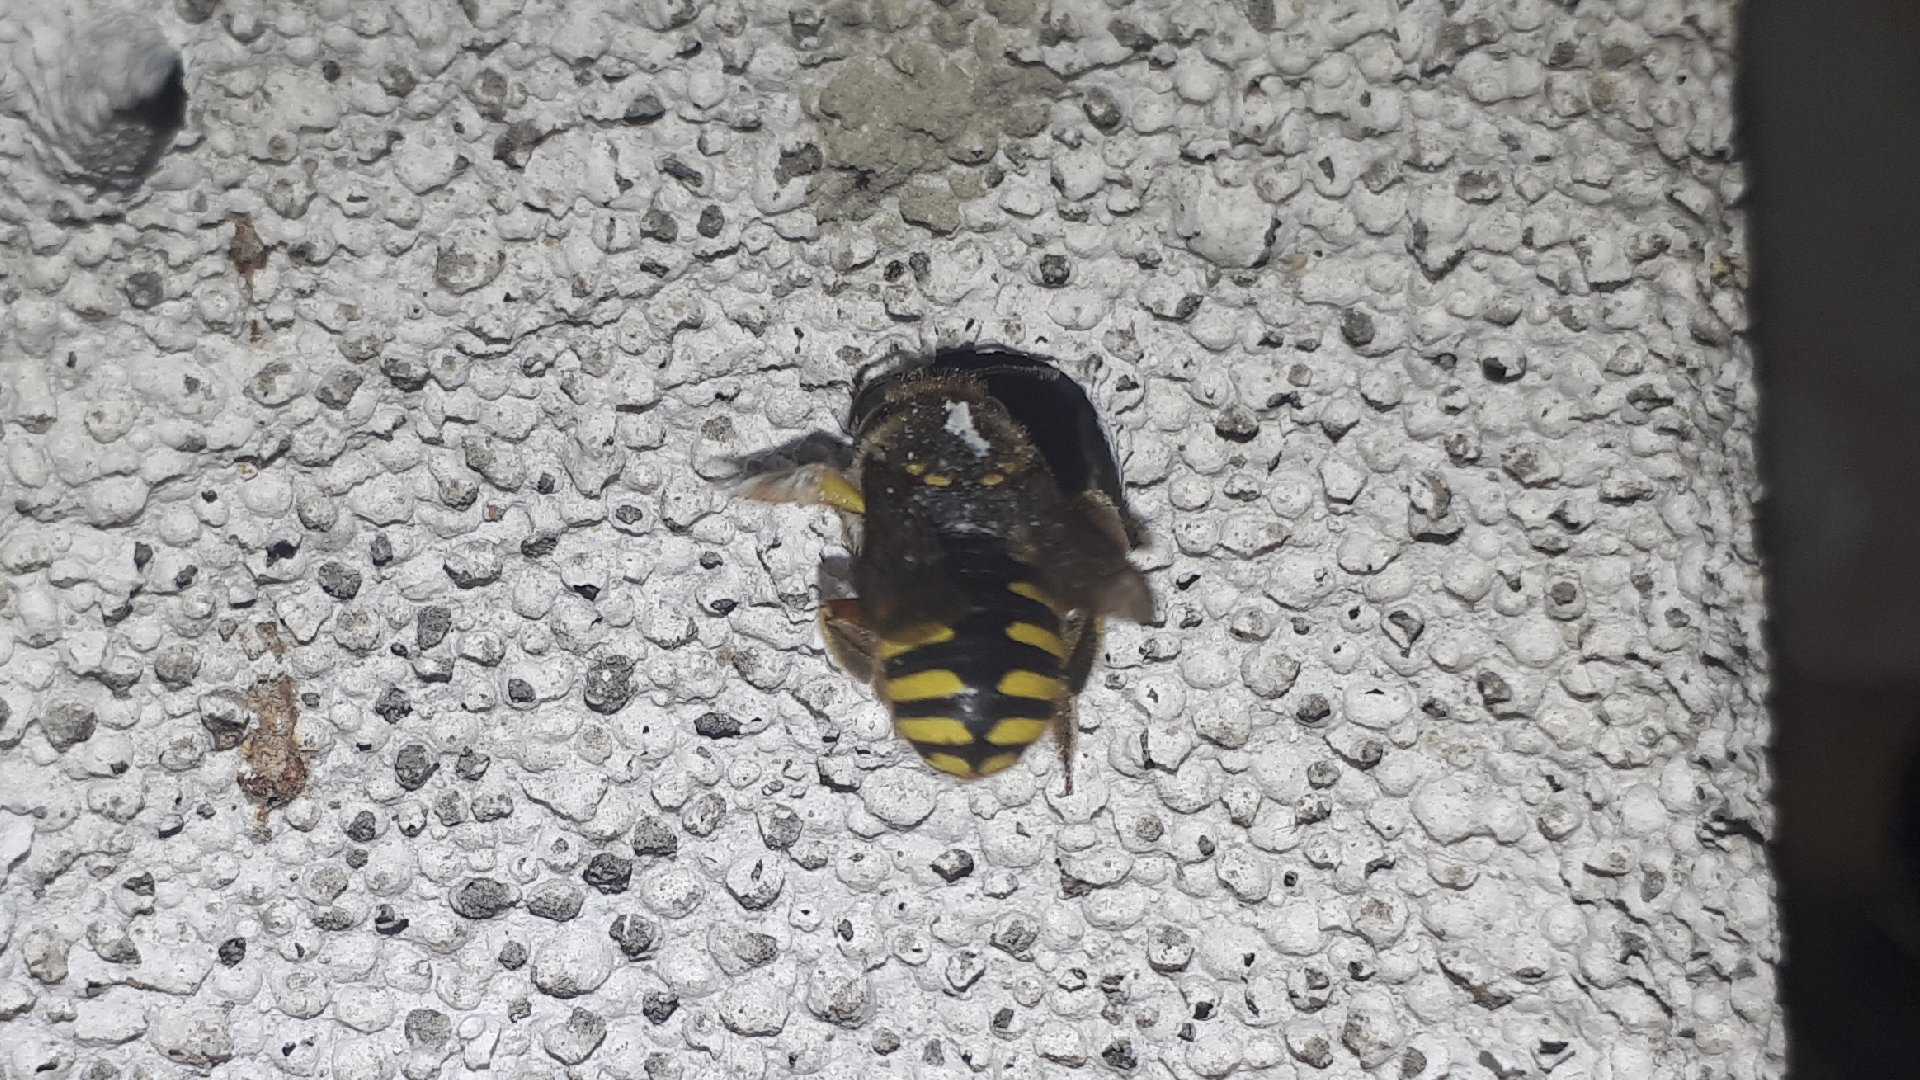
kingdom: Animalia
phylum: Arthropoda
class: Insecta
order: Hymenoptera
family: Megachilidae
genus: Anthidium
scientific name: Anthidium manicatum
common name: Wool carder bee
